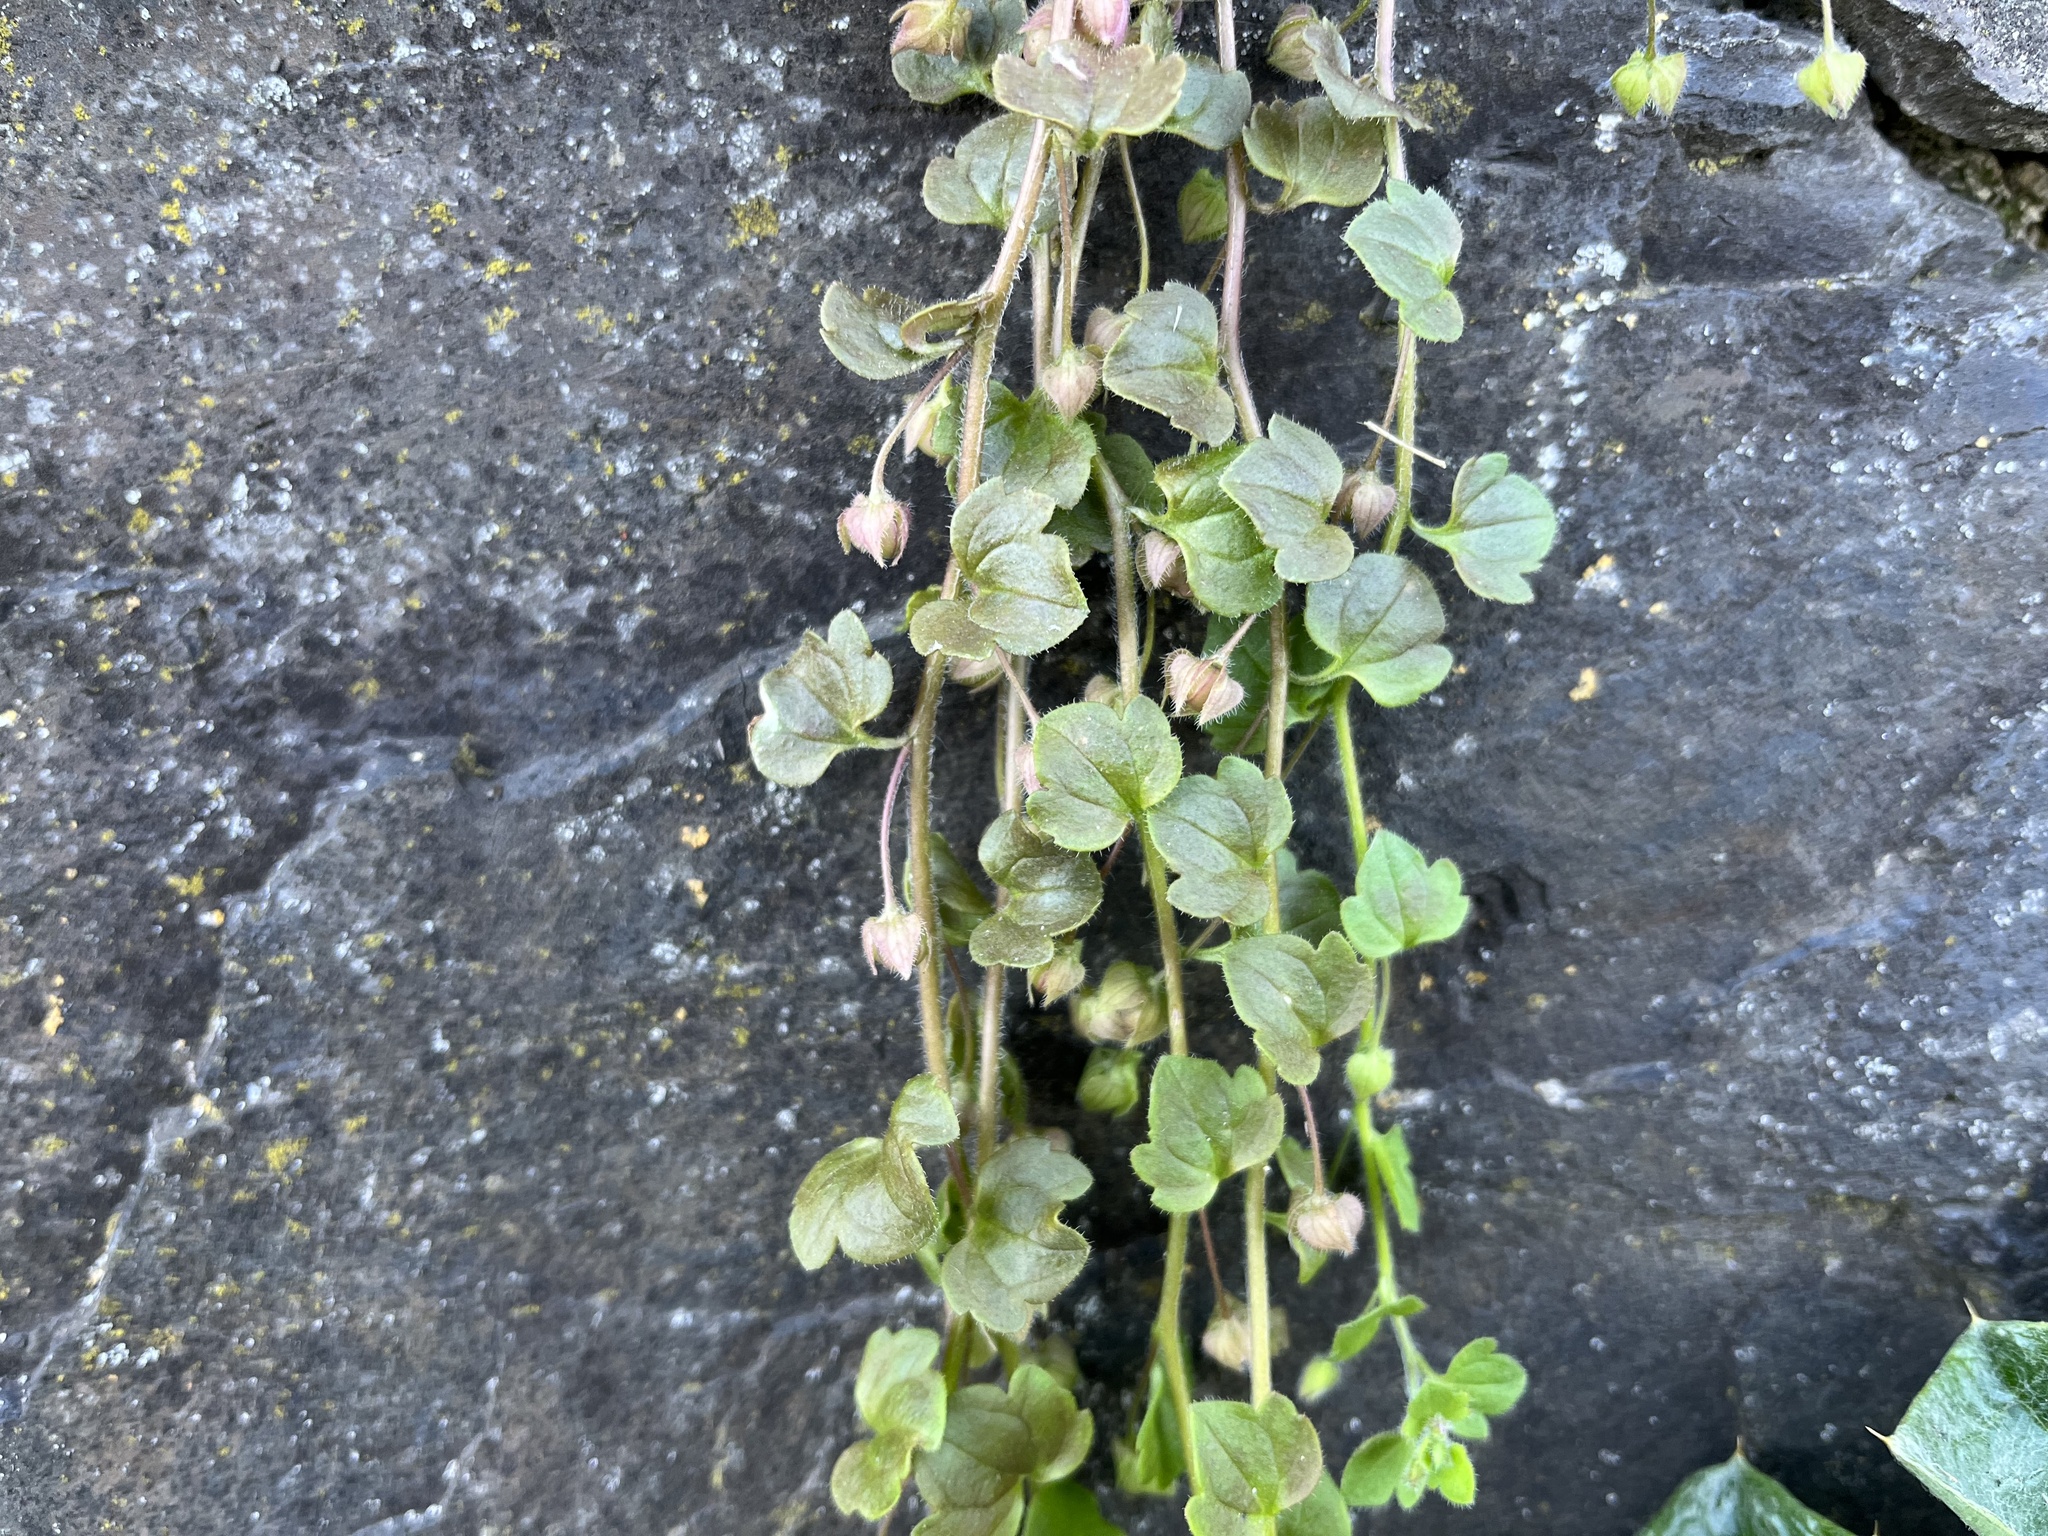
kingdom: Plantae
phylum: Tracheophyta
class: Magnoliopsida
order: Lamiales
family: Plantaginaceae
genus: Veronica
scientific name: Veronica sublobata
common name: False ivy-leaved speedwell
